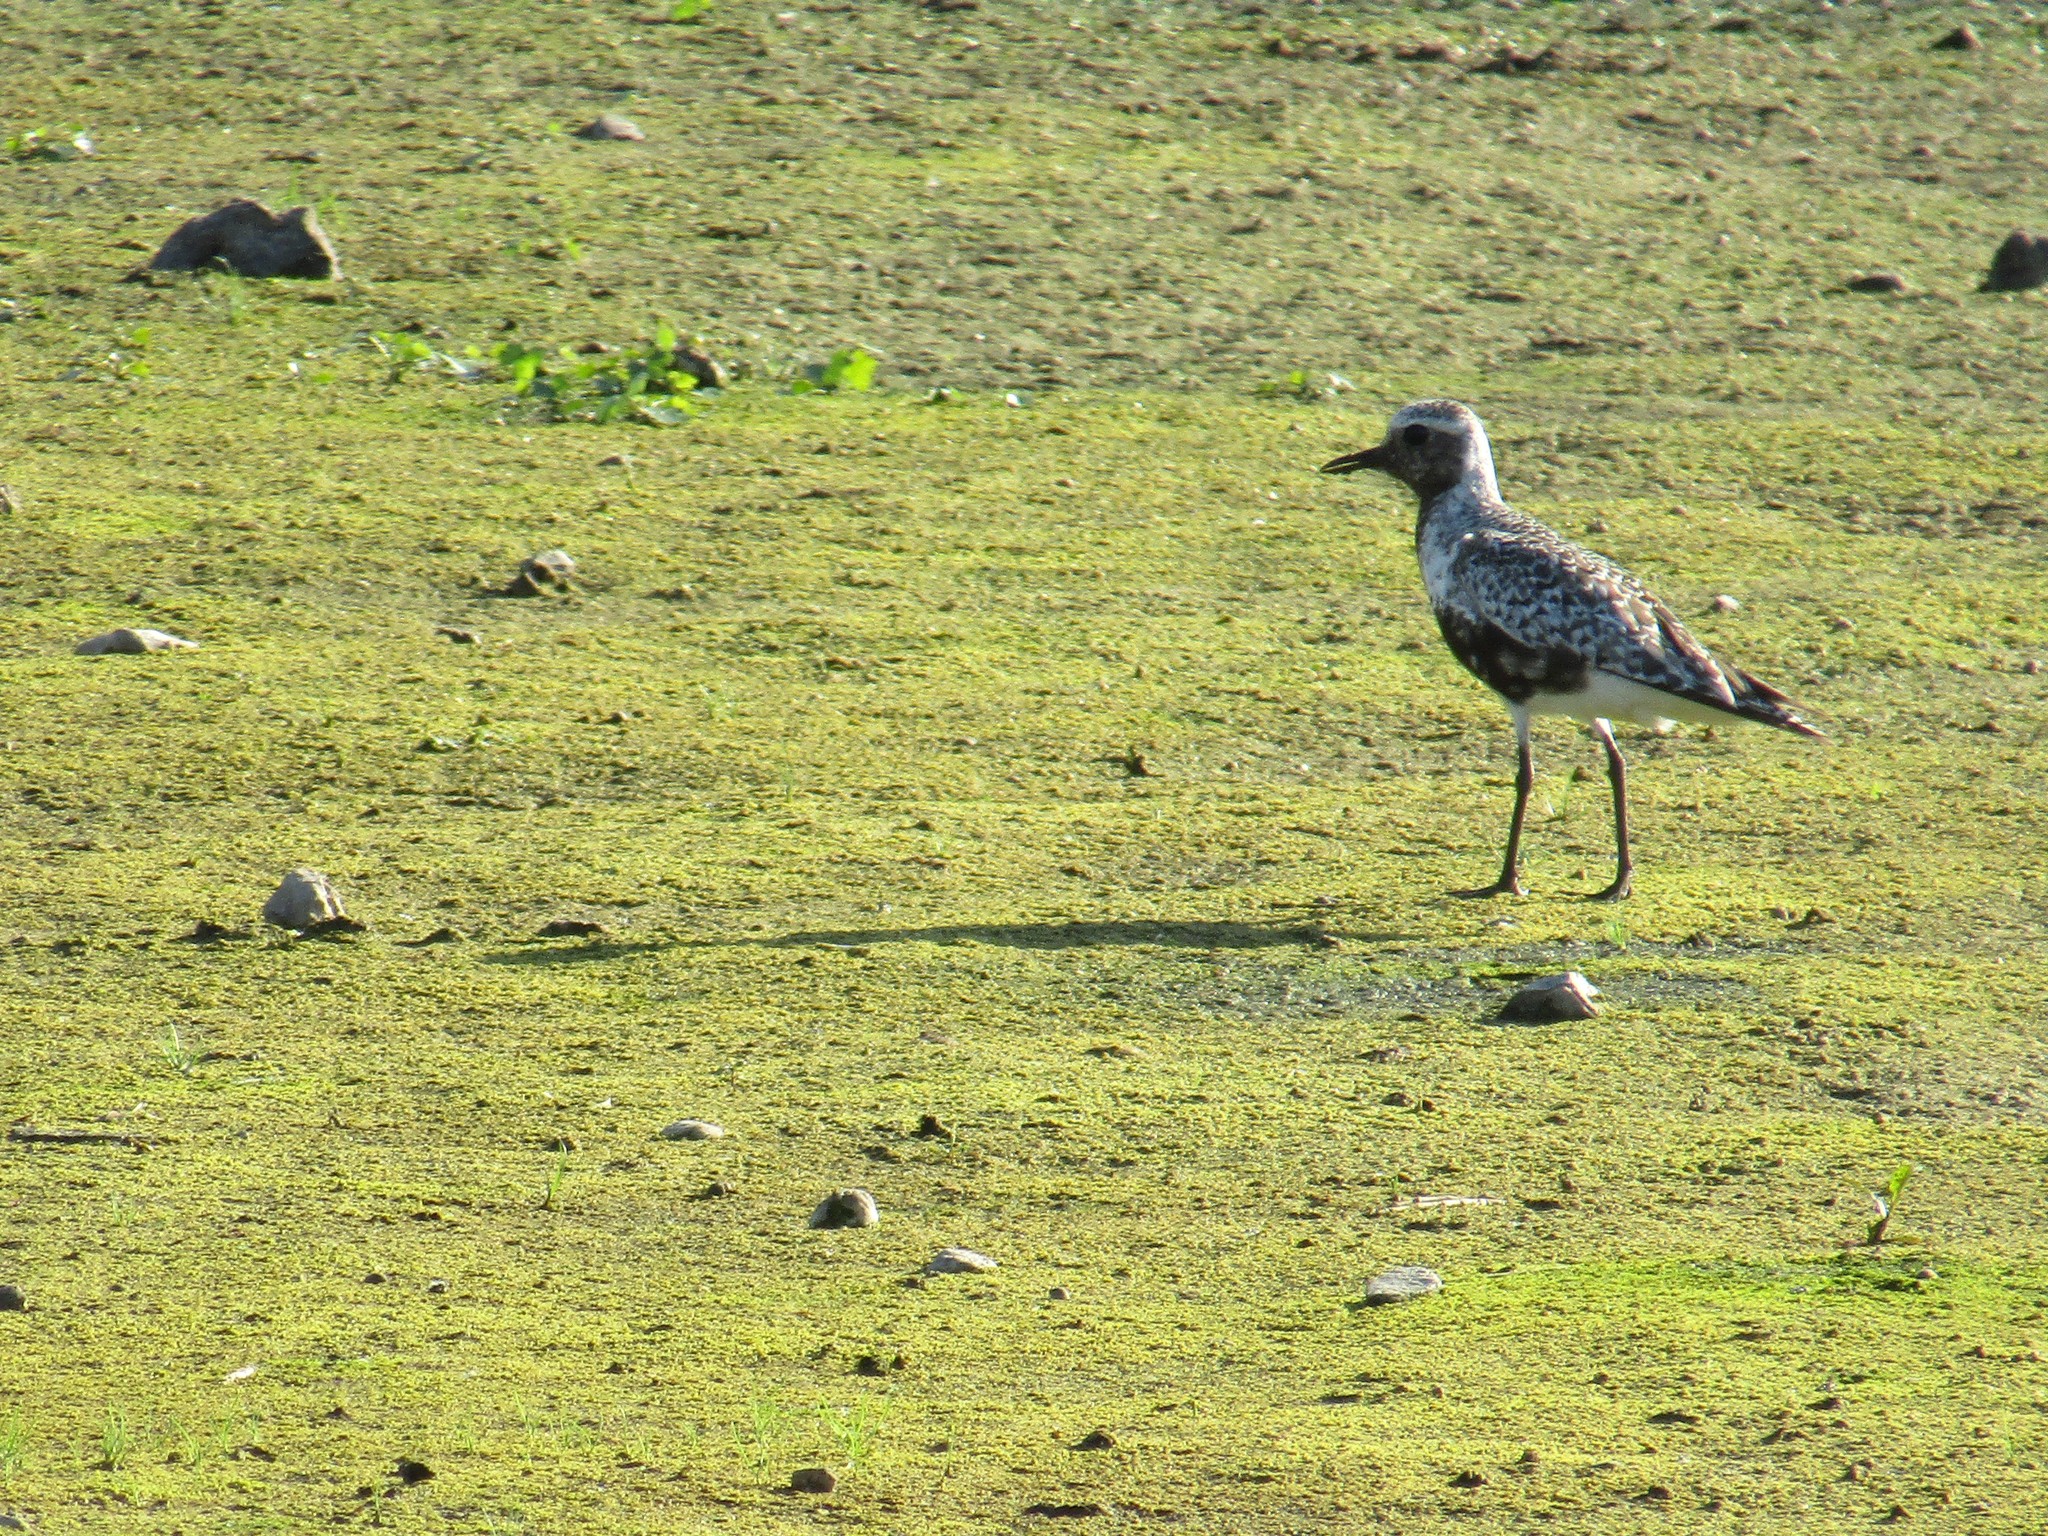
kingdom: Animalia
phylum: Chordata
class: Aves
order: Charadriiformes
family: Charadriidae
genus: Pluvialis
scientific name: Pluvialis squatarola
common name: Grey plover
